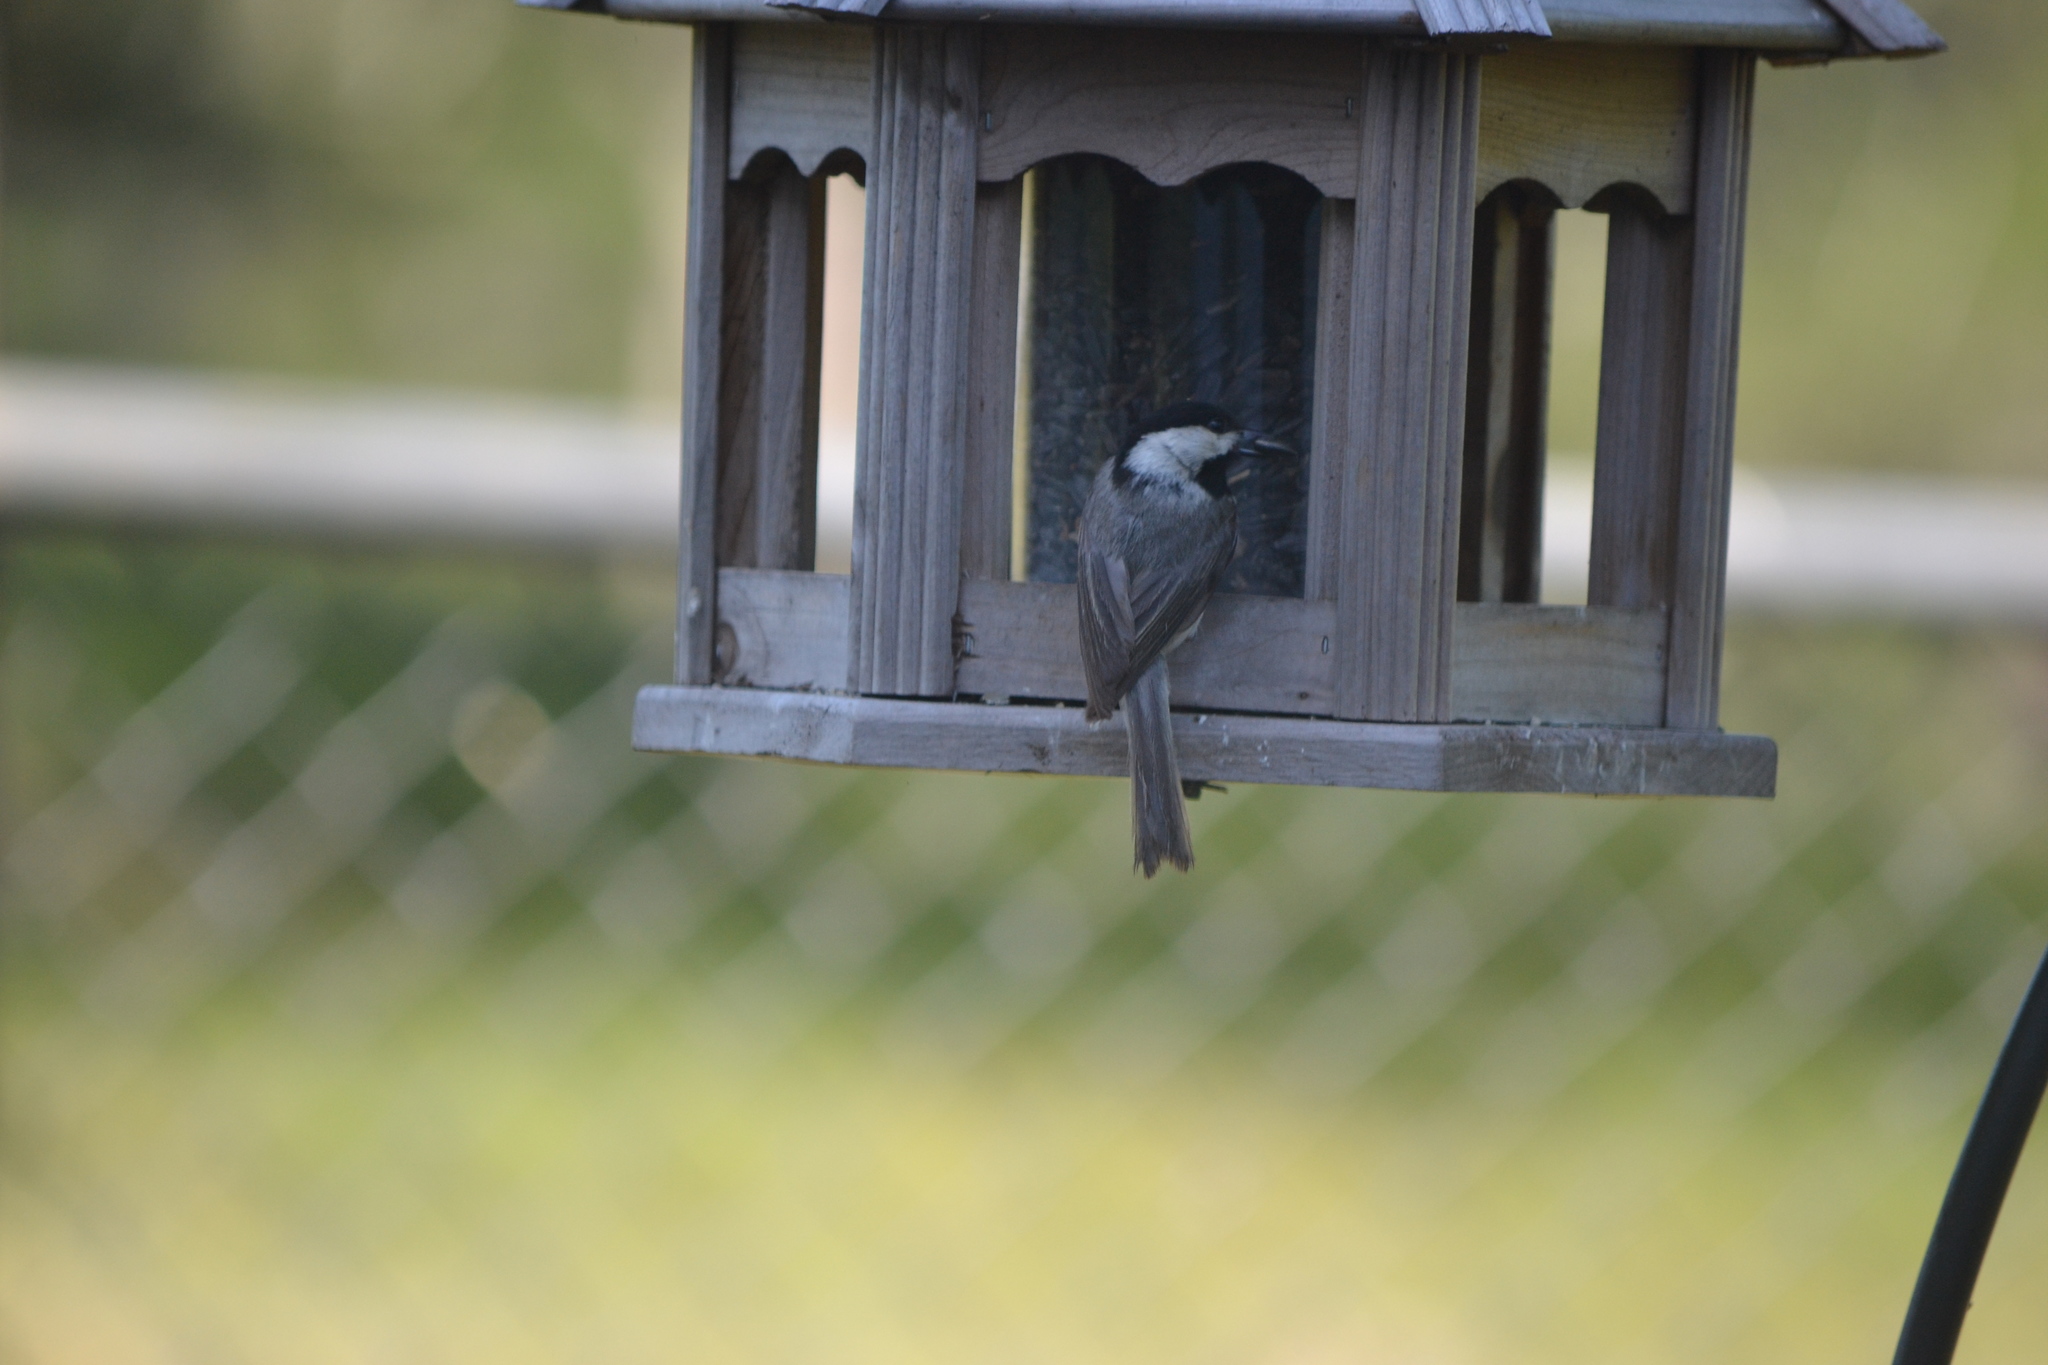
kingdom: Animalia
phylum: Chordata
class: Aves
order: Passeriformes
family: Paridae
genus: Poecile
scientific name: Poecile carolinensis
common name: Carolina chickadee
